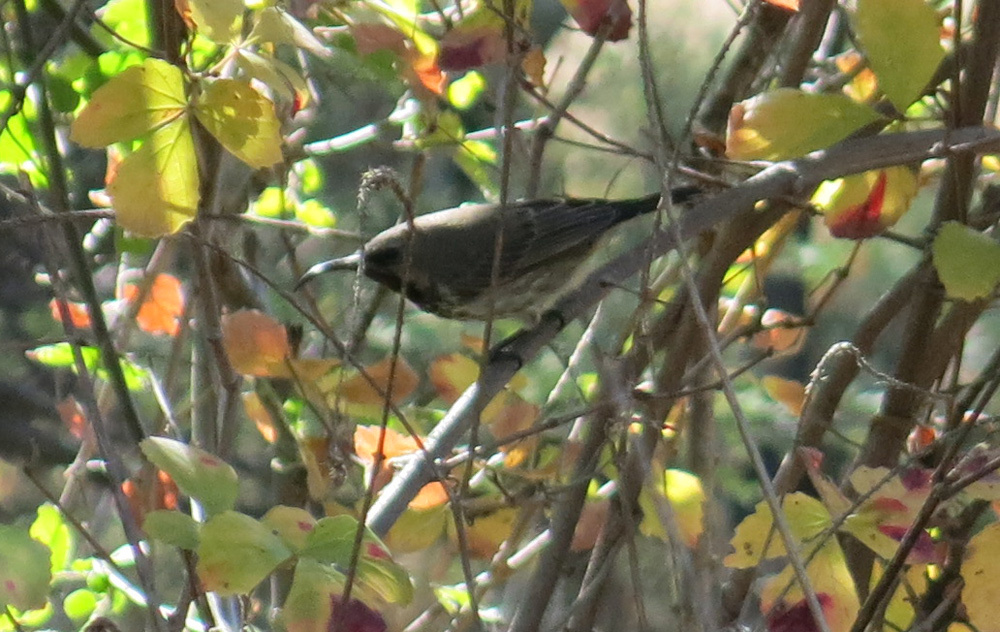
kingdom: Animalia
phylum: Chordata
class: Aves
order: Passeriformes
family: Nectariniidae
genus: Chalcomitra
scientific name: Chalcomitra amethystina
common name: Amethyst sunbird
